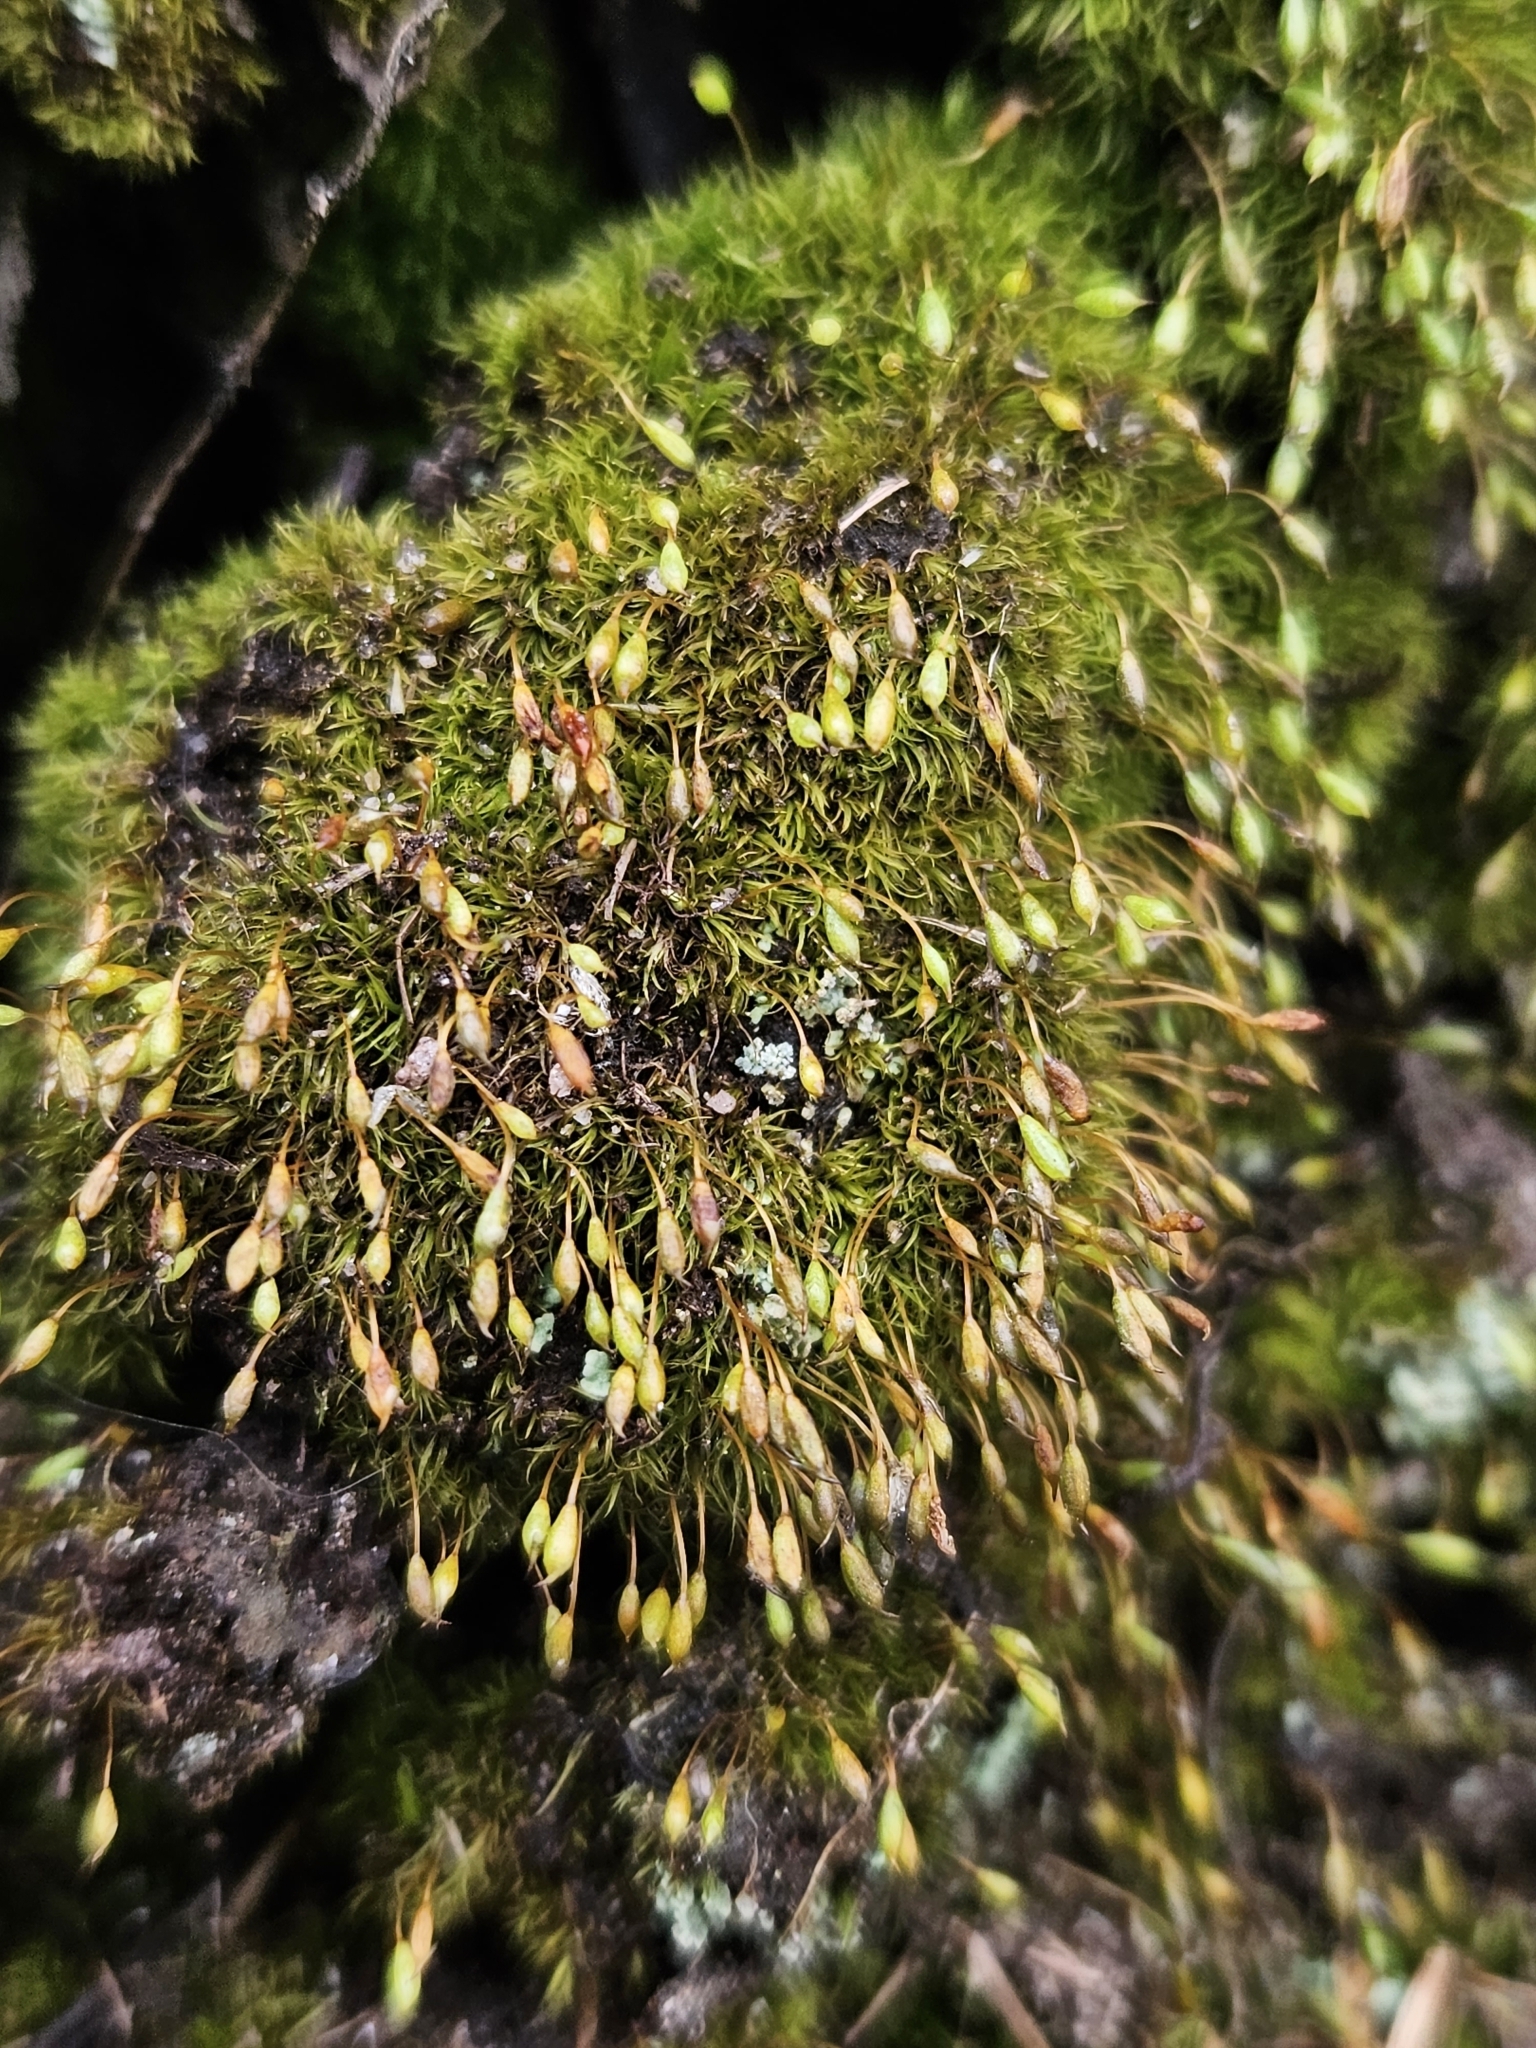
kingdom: Plantae
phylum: Bryophyta
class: Bryopsida
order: Orthodontiales
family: Orthodontiaceae
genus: Orthodontium
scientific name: Orthodontium lineare
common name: Cape thread-moss
